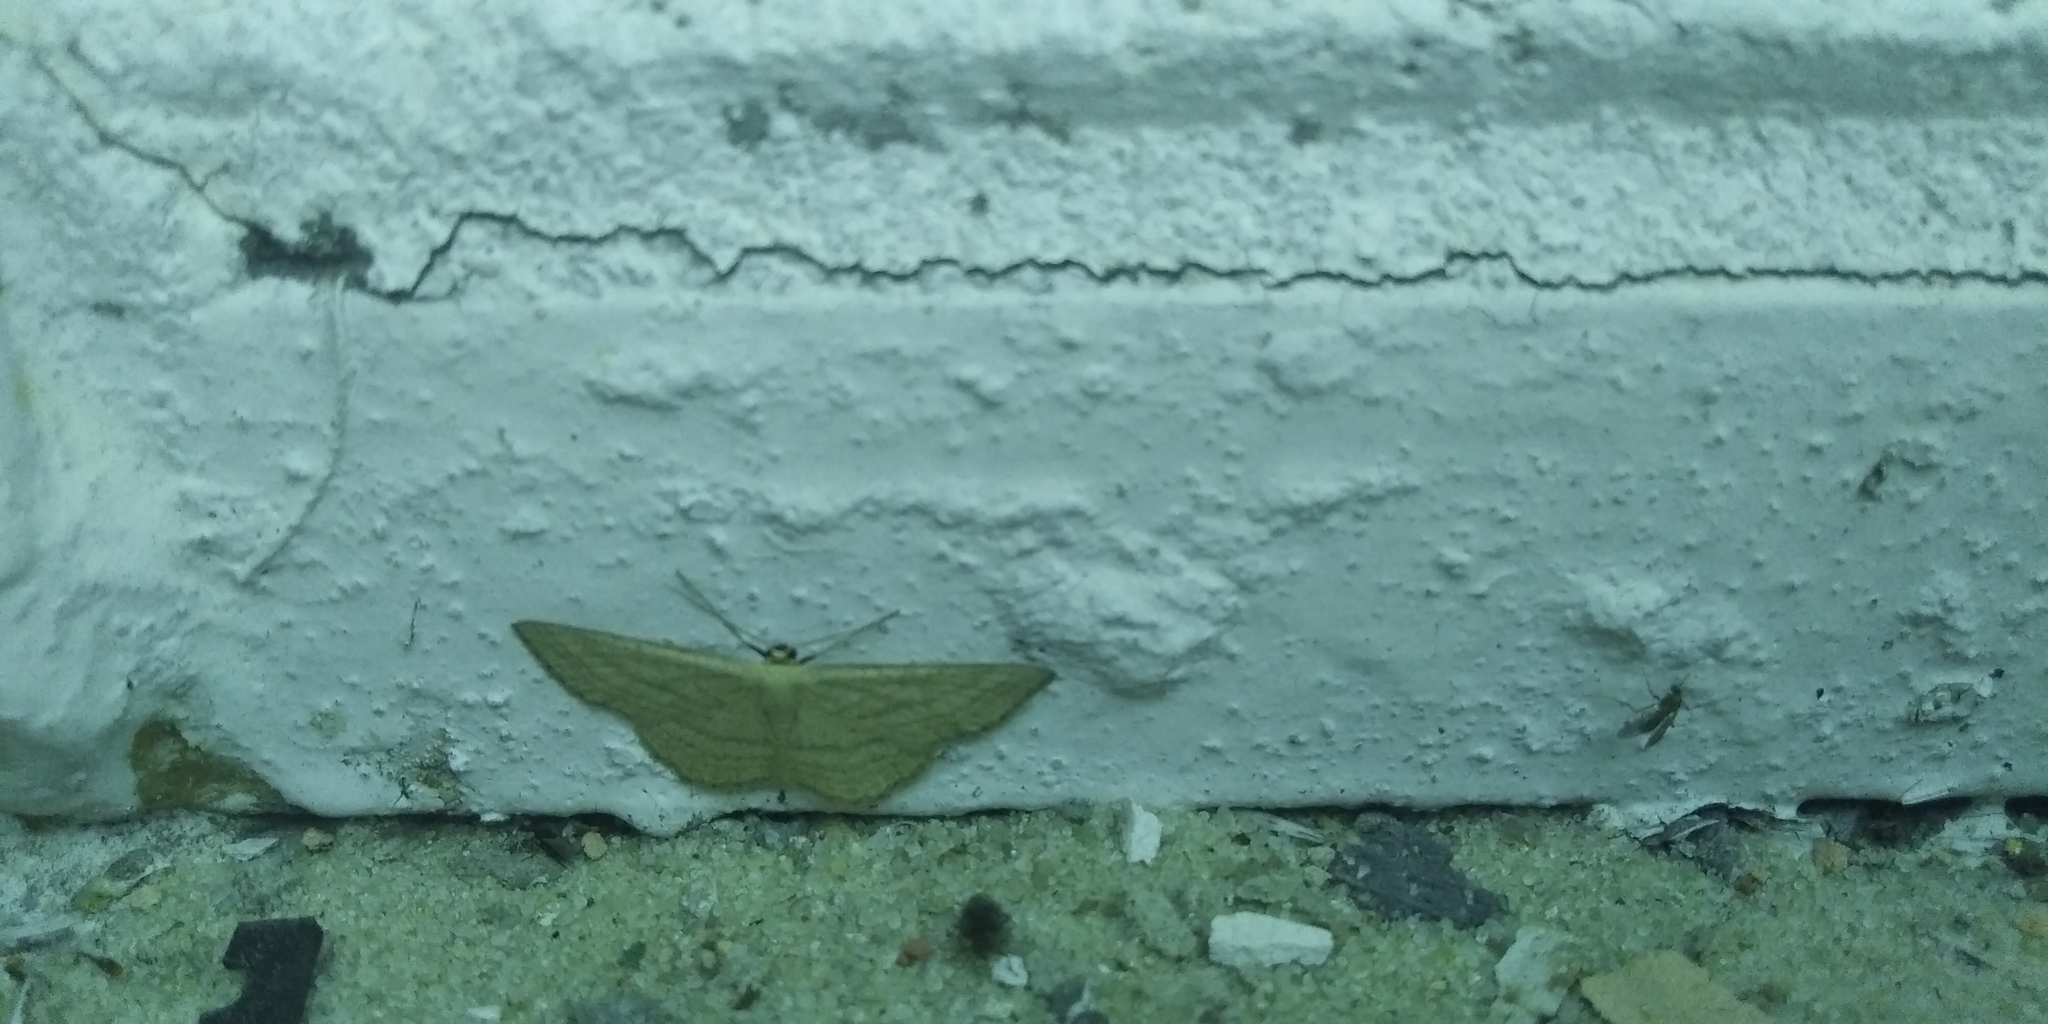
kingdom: Animalia
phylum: Arthropoda
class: Insecta
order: Lepidoptera
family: Geometridae
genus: Scopula
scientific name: Scopula virgulata
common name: Streaked wave
